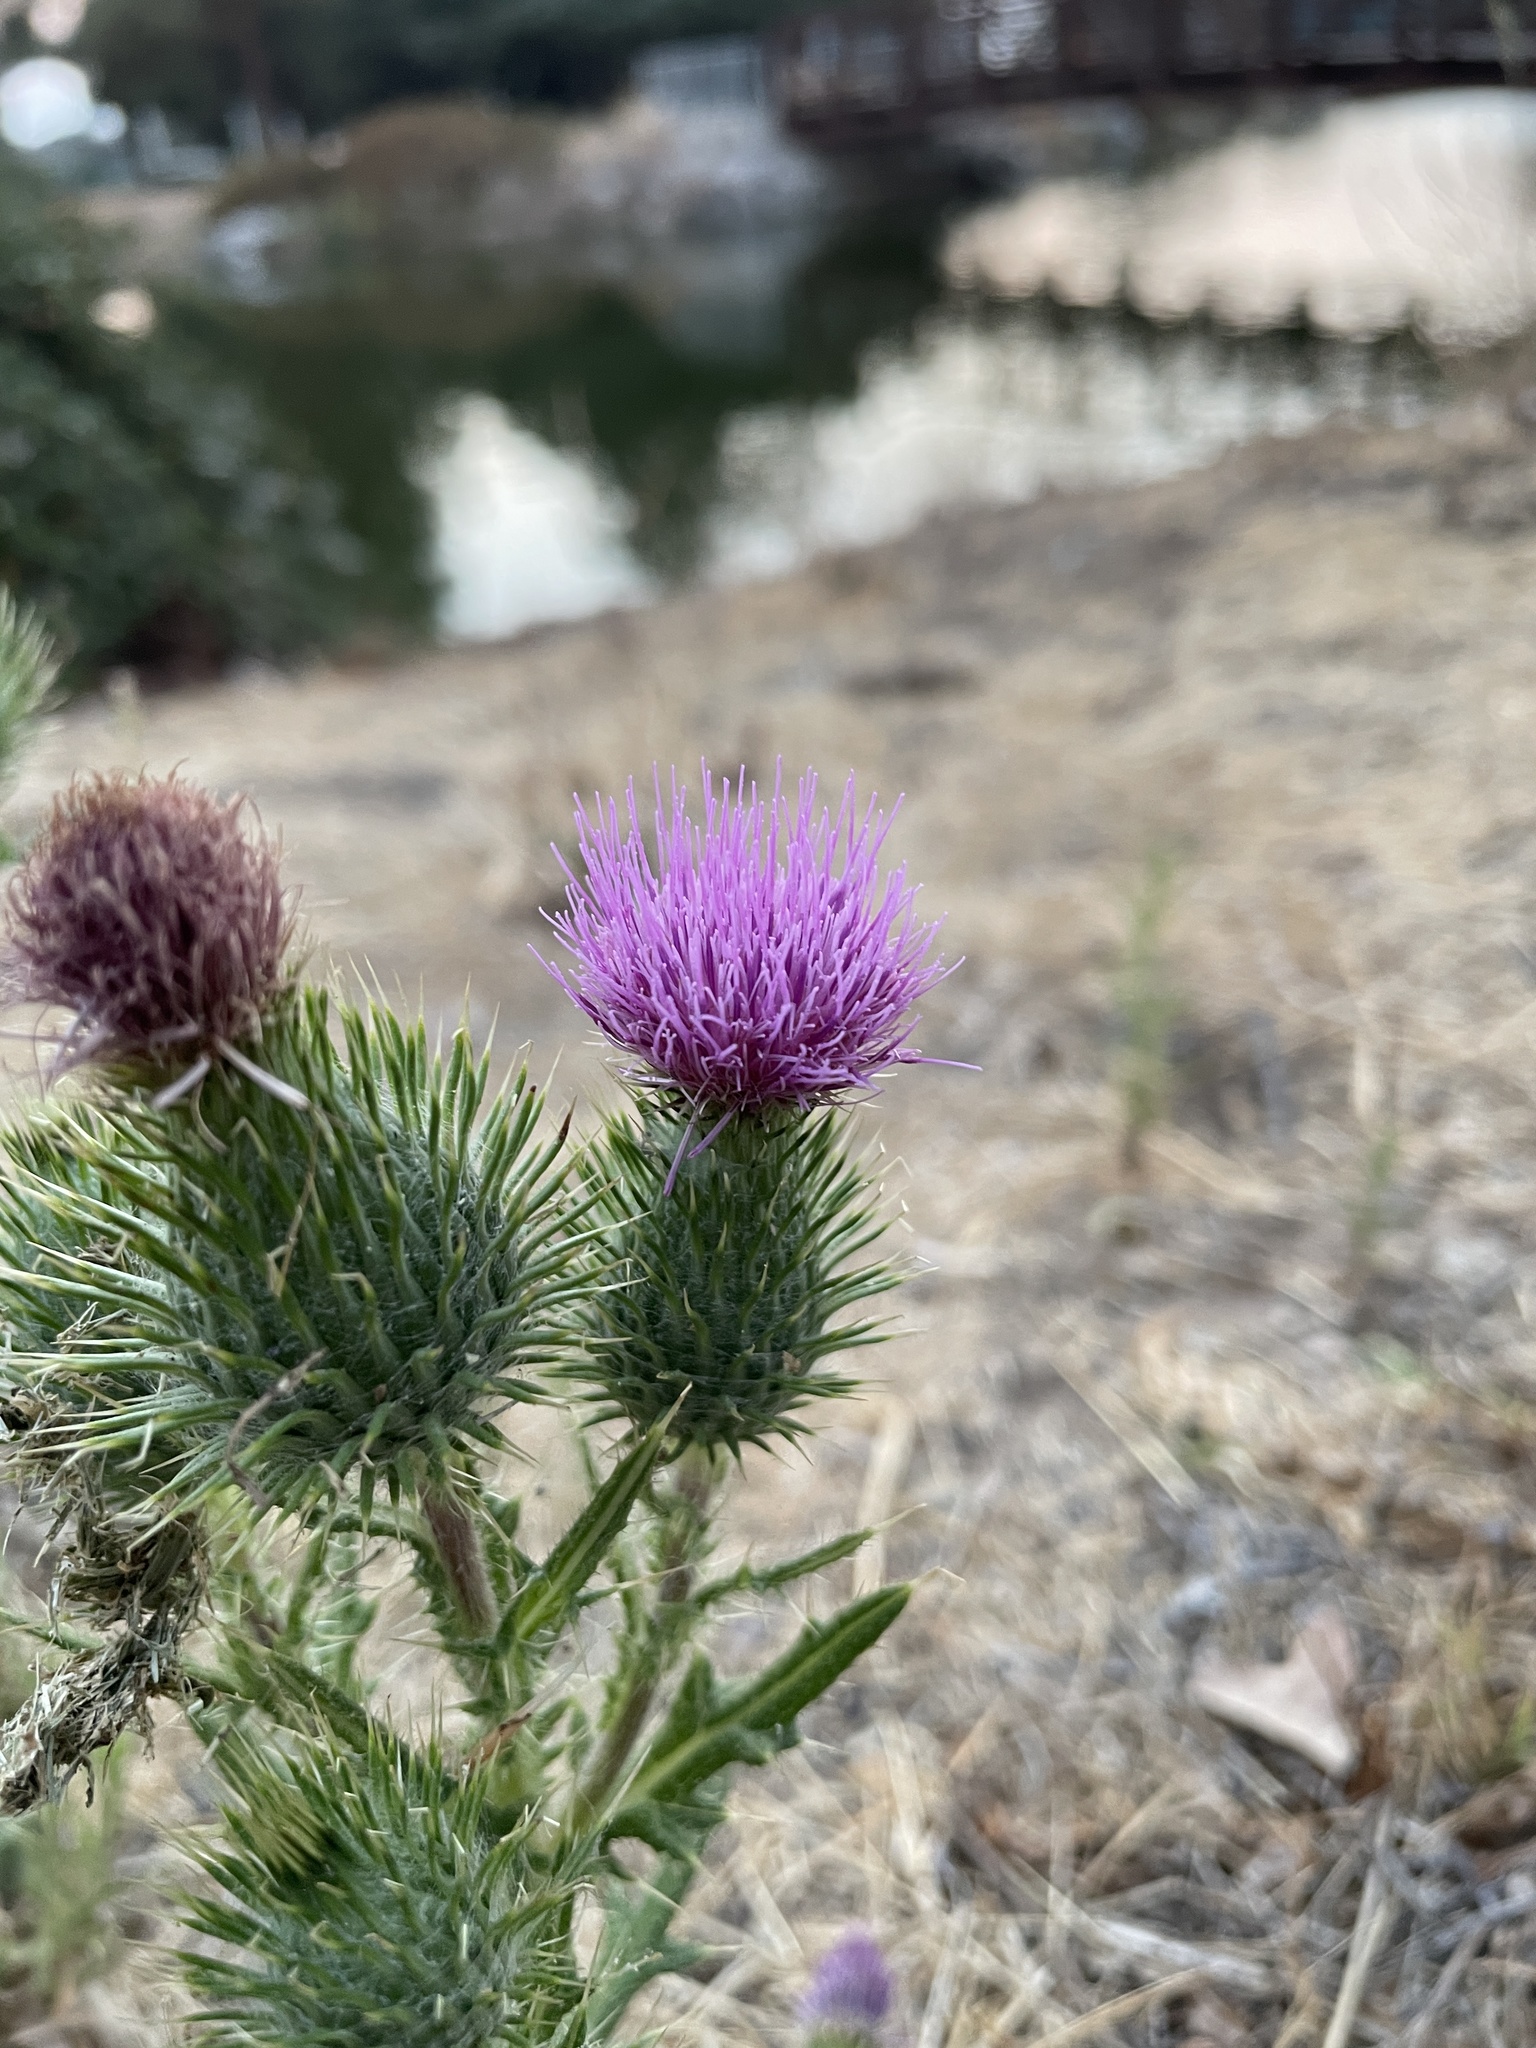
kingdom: Plantae
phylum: Tracheophyta
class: Magnoliopsida
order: Asterales
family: Asteraceae
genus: Cirsium
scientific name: Cirsium vulgare
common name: Bull thistle
